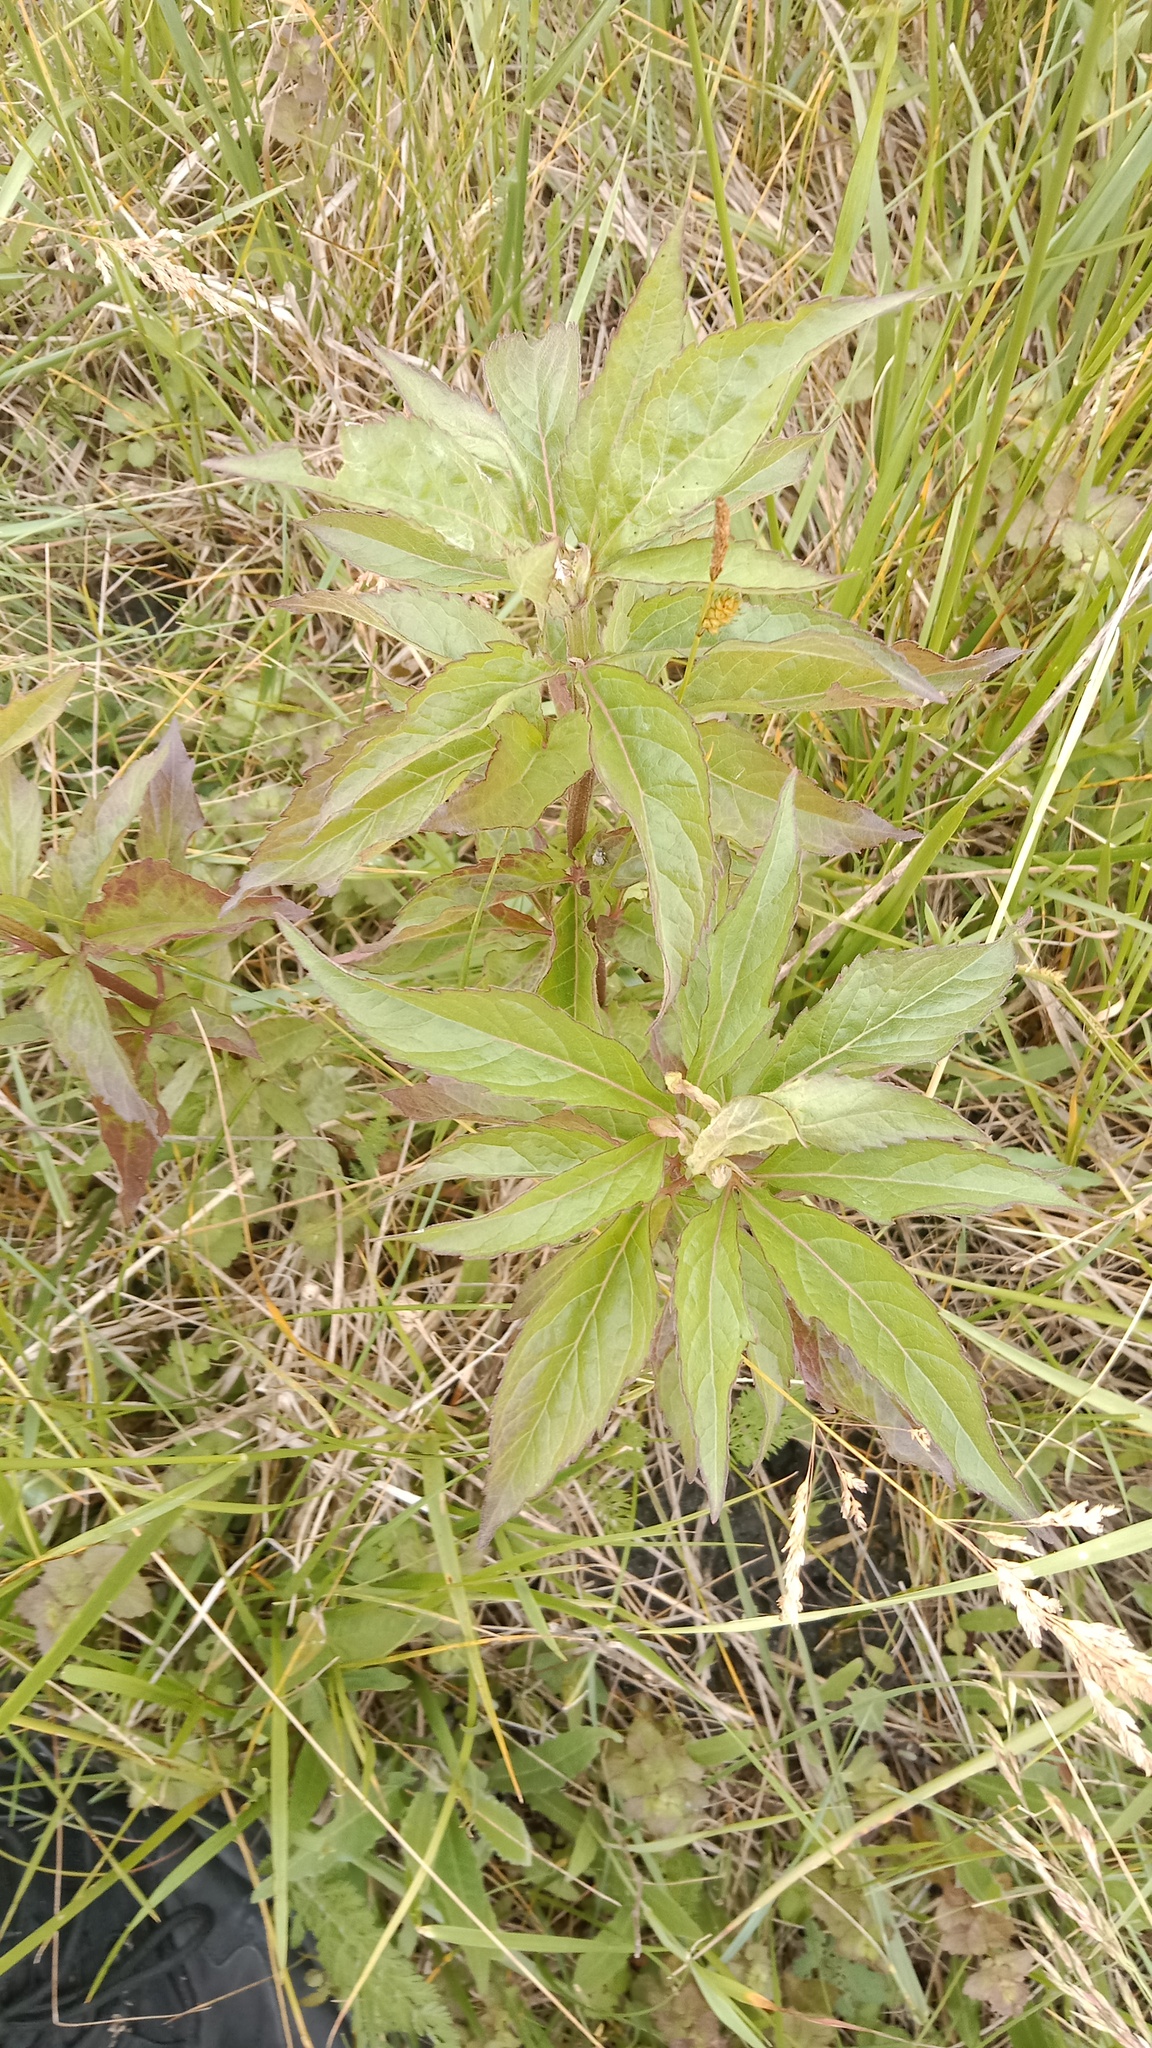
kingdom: Plantae
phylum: Tracheophyta
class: Magnoliopsida
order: Asterales
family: Asteraceae
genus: Eupatorium
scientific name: Eupatorium cannabinum
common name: Hemp-agrimony
